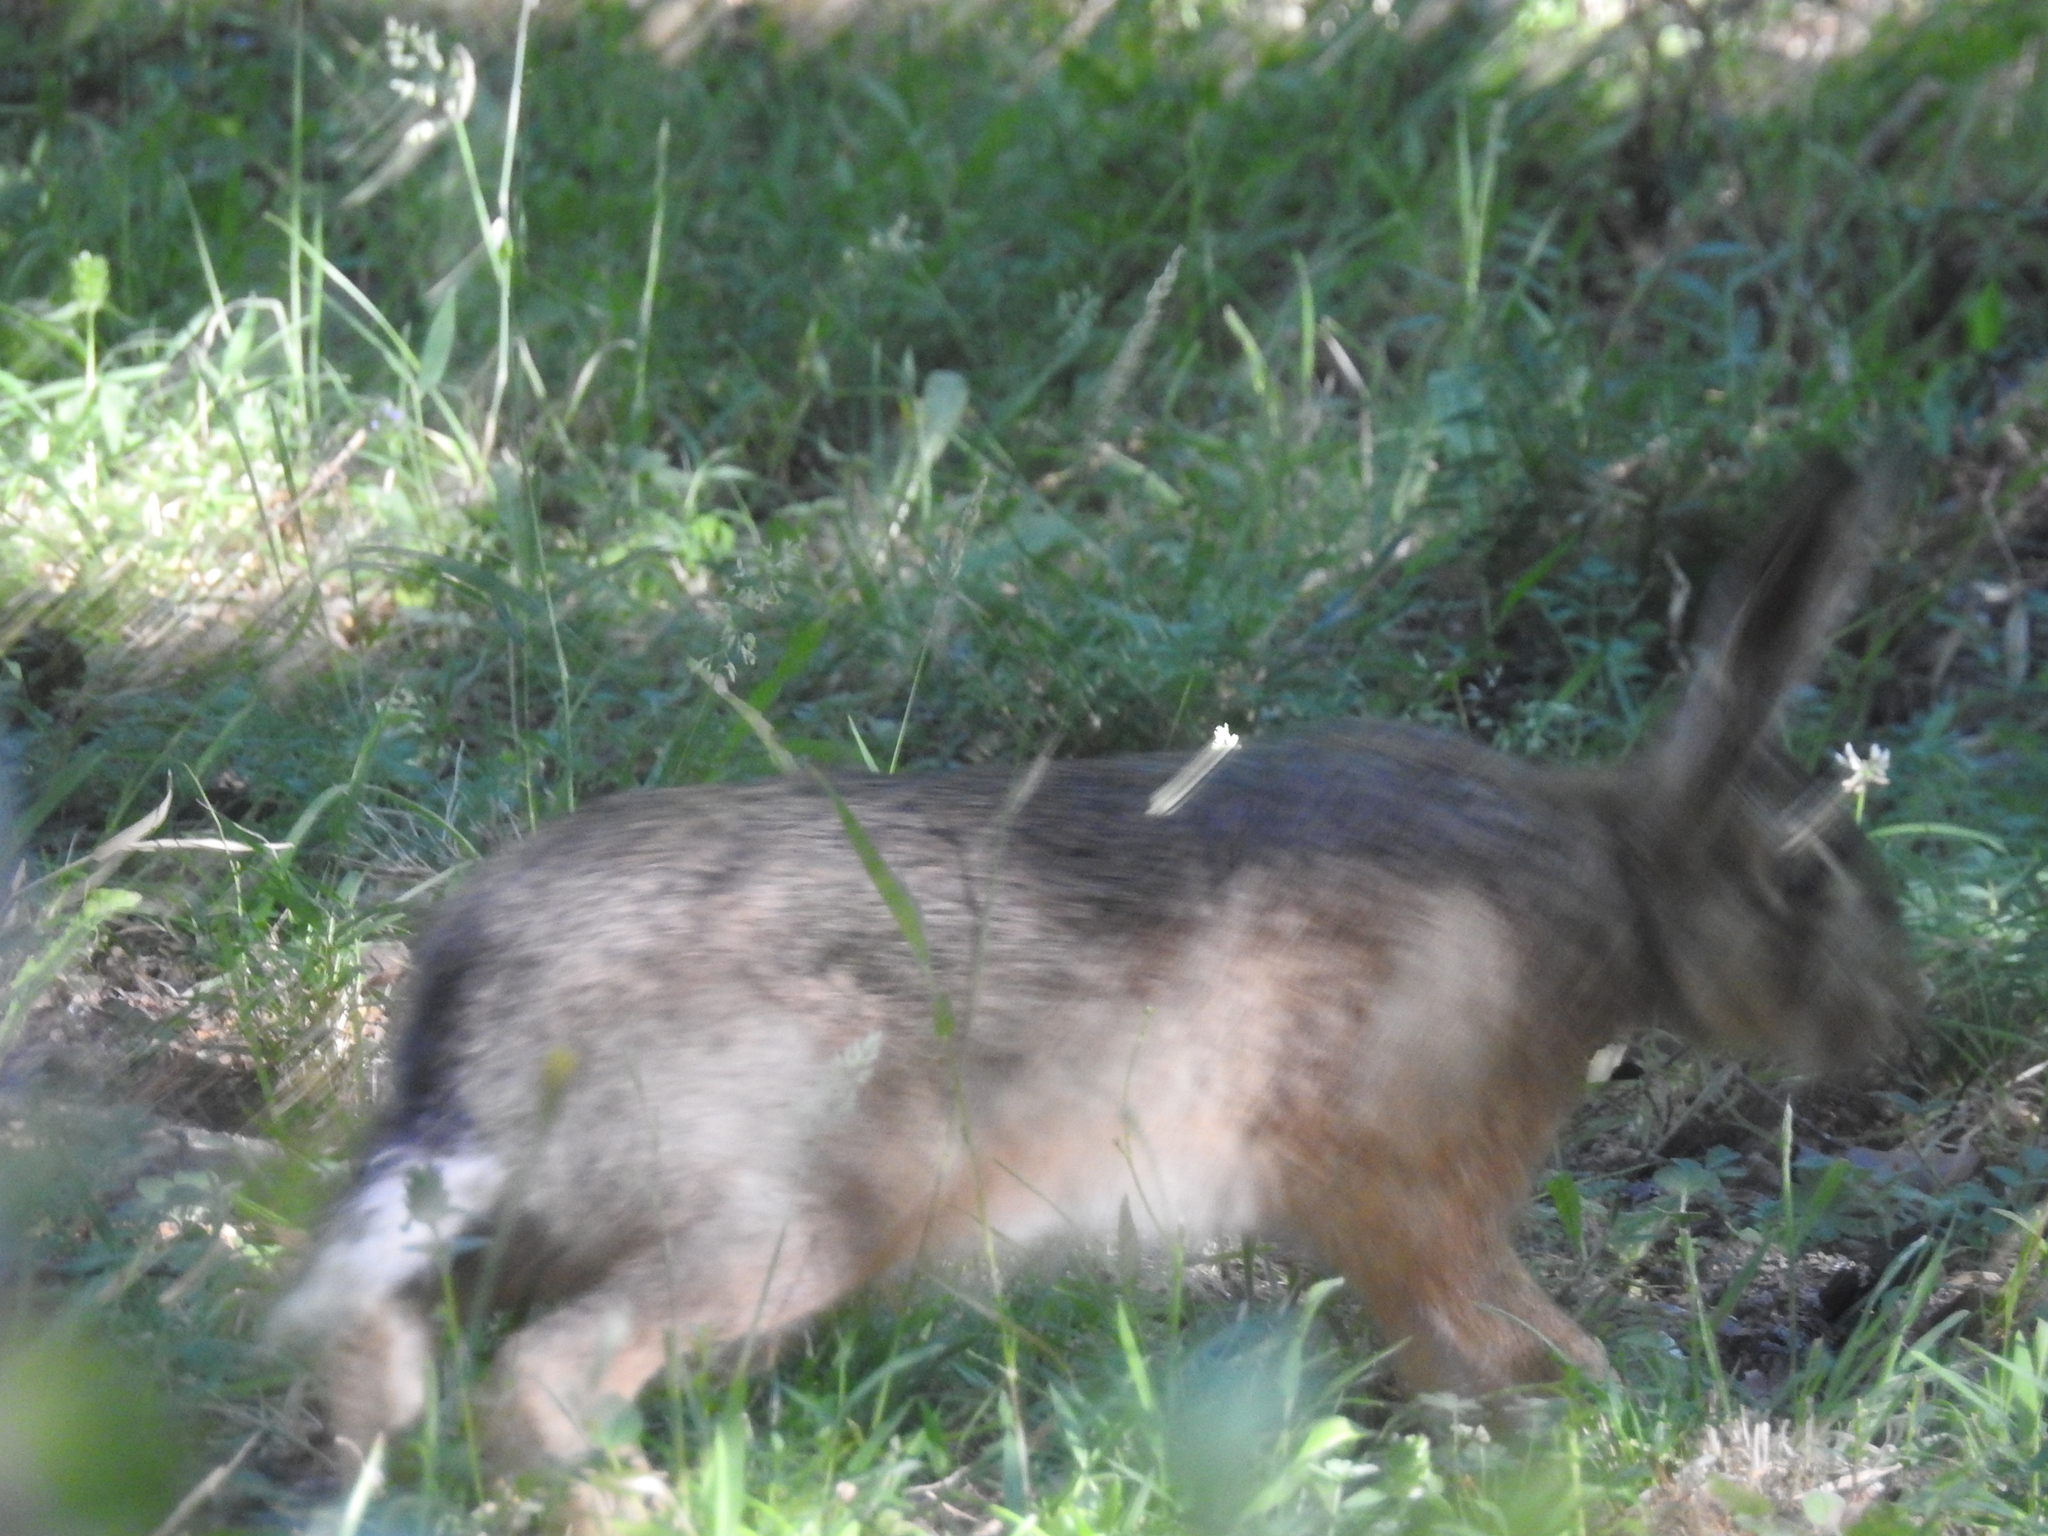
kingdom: Animalia
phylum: Chordata
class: Mammalia
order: Lagomorpha
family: Leporidae
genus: Lepus
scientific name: Lepus europaeus
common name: European hare
